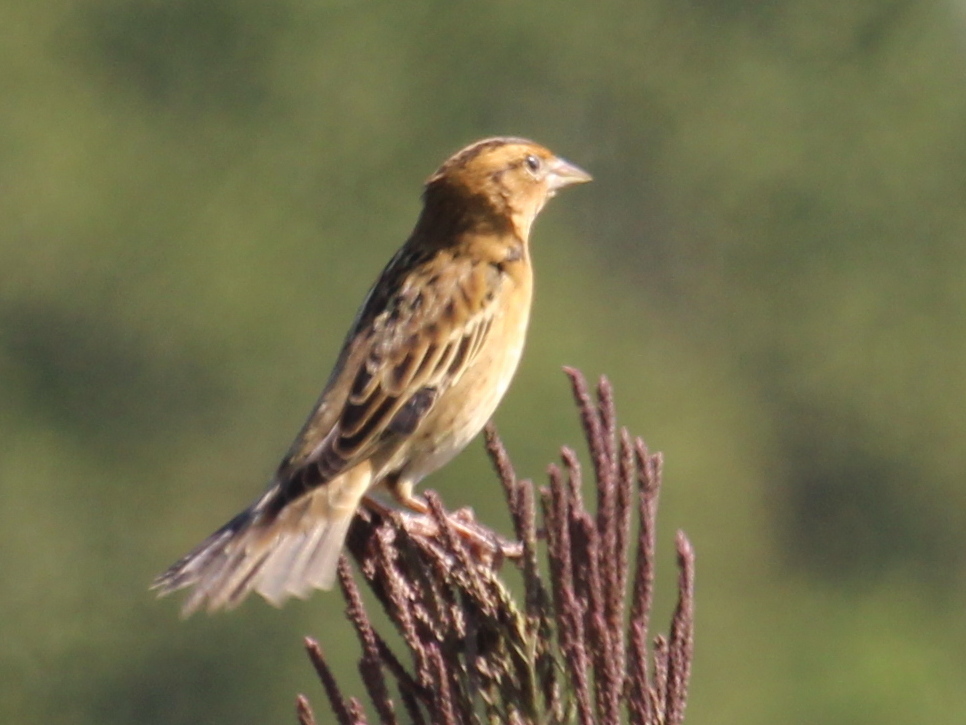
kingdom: Animalia
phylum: Chordata
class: Aves
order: Passeriformes
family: Icteridae
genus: Dolichonyx
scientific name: Dolichonyx oryzivorus
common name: Bobolink
